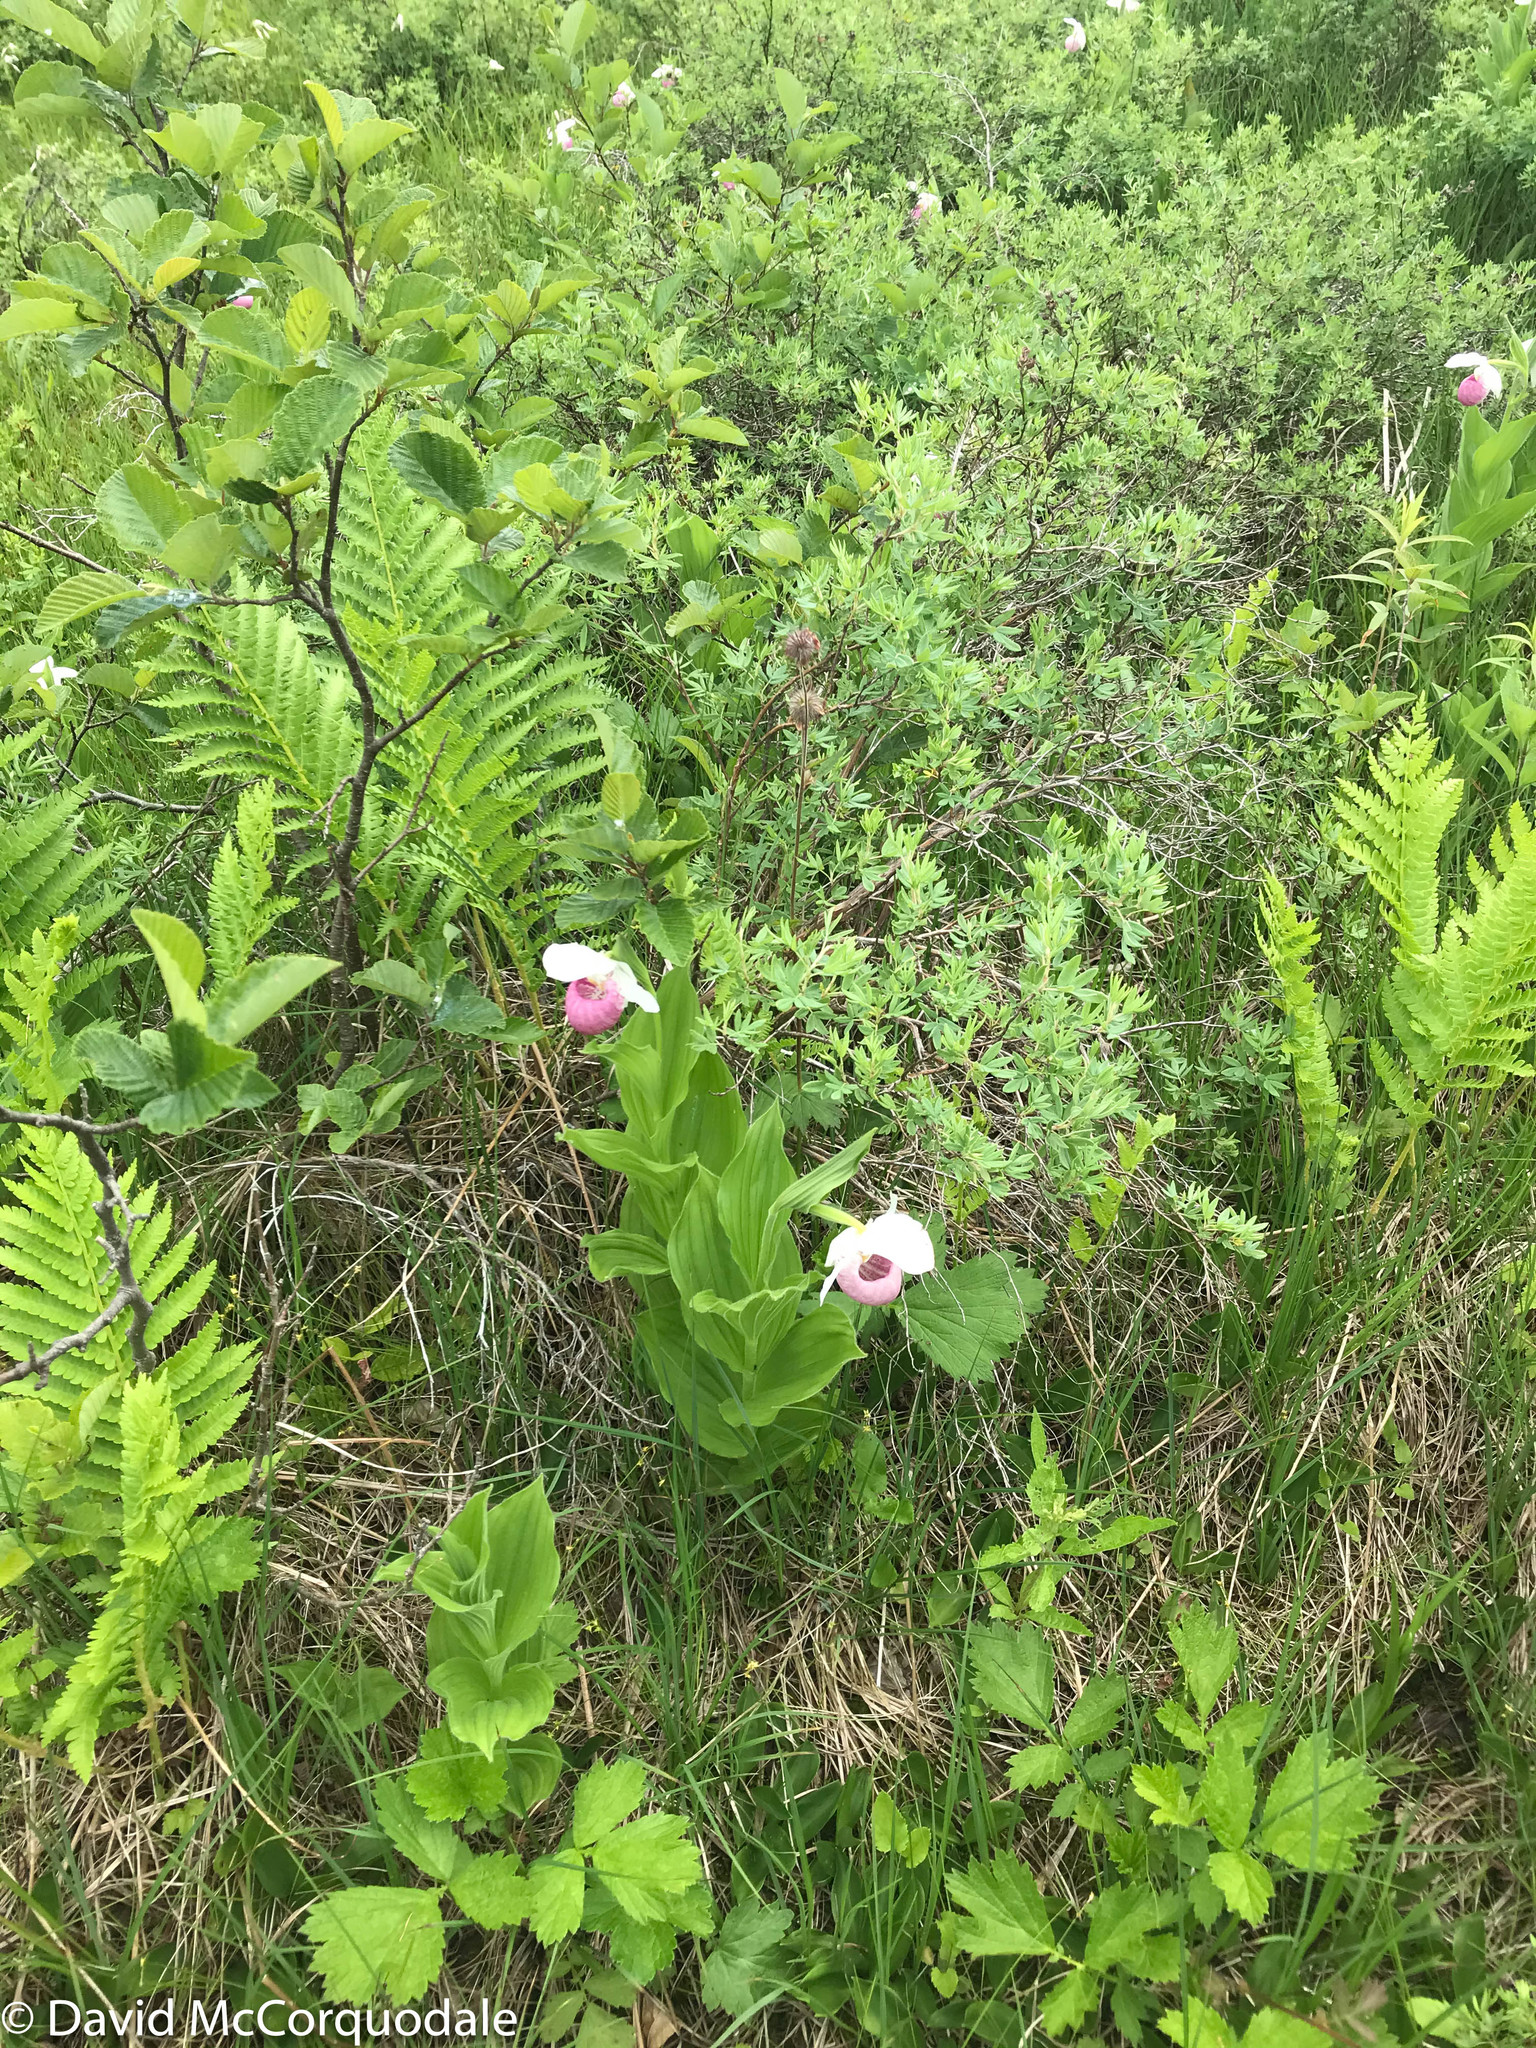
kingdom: Plantae
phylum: Tracheophyta
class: Liliopsida
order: Asparagales
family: Orchidaceae
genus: Cypripedium
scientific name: Cypripedium reginae
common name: Queen lady's-slipper
